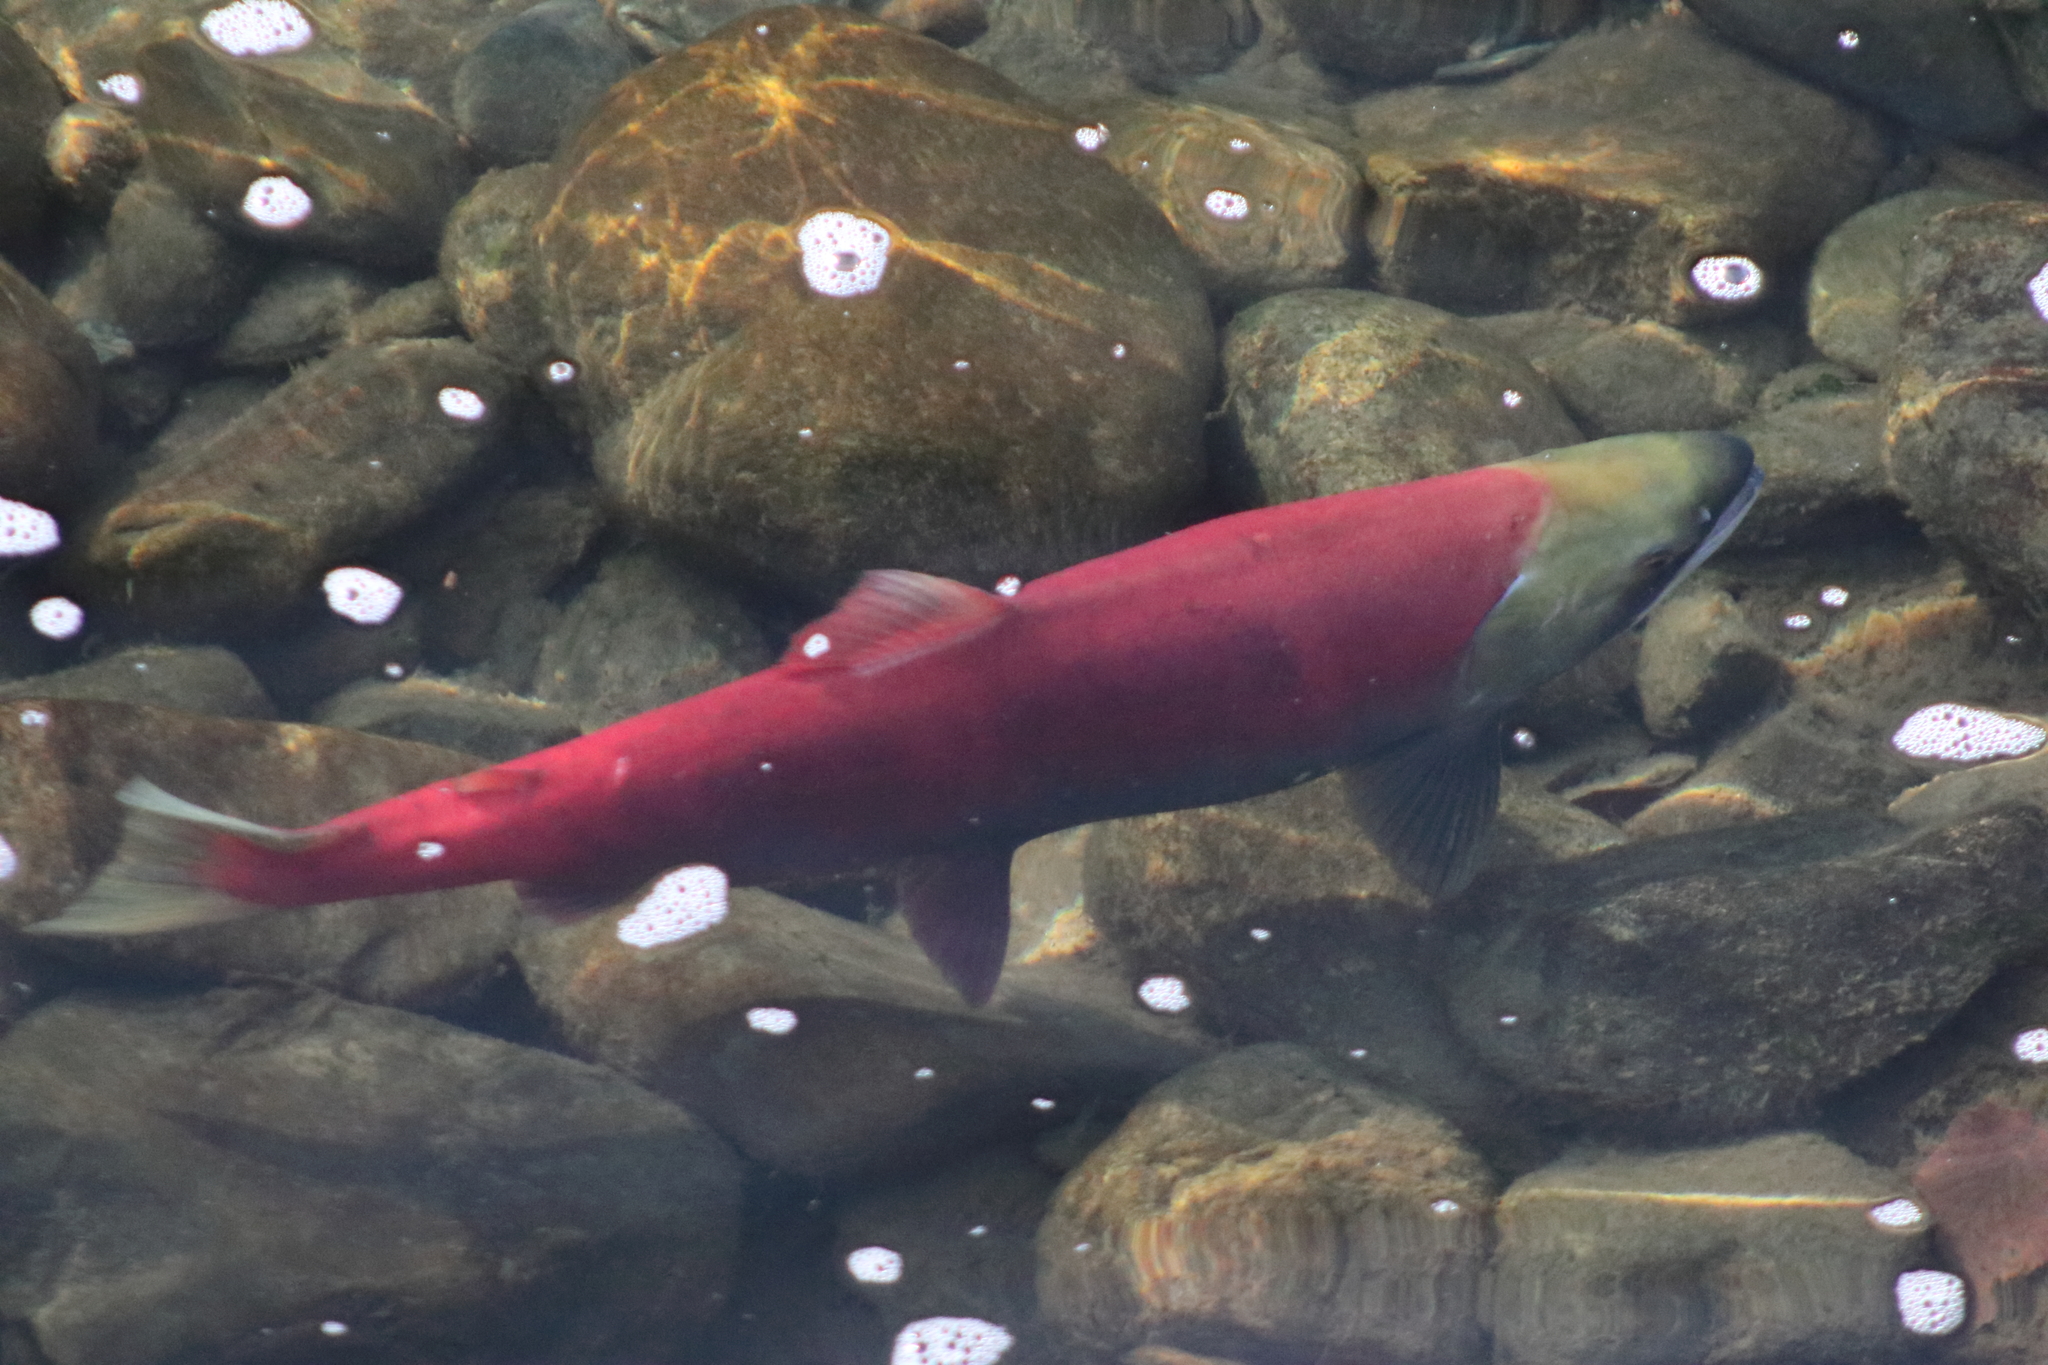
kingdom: Animalia
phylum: Chordata
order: Salmoniformes
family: Salmonidae
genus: Oncorhynchus
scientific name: Oncorhynchus nerka
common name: Sockeye salmon
